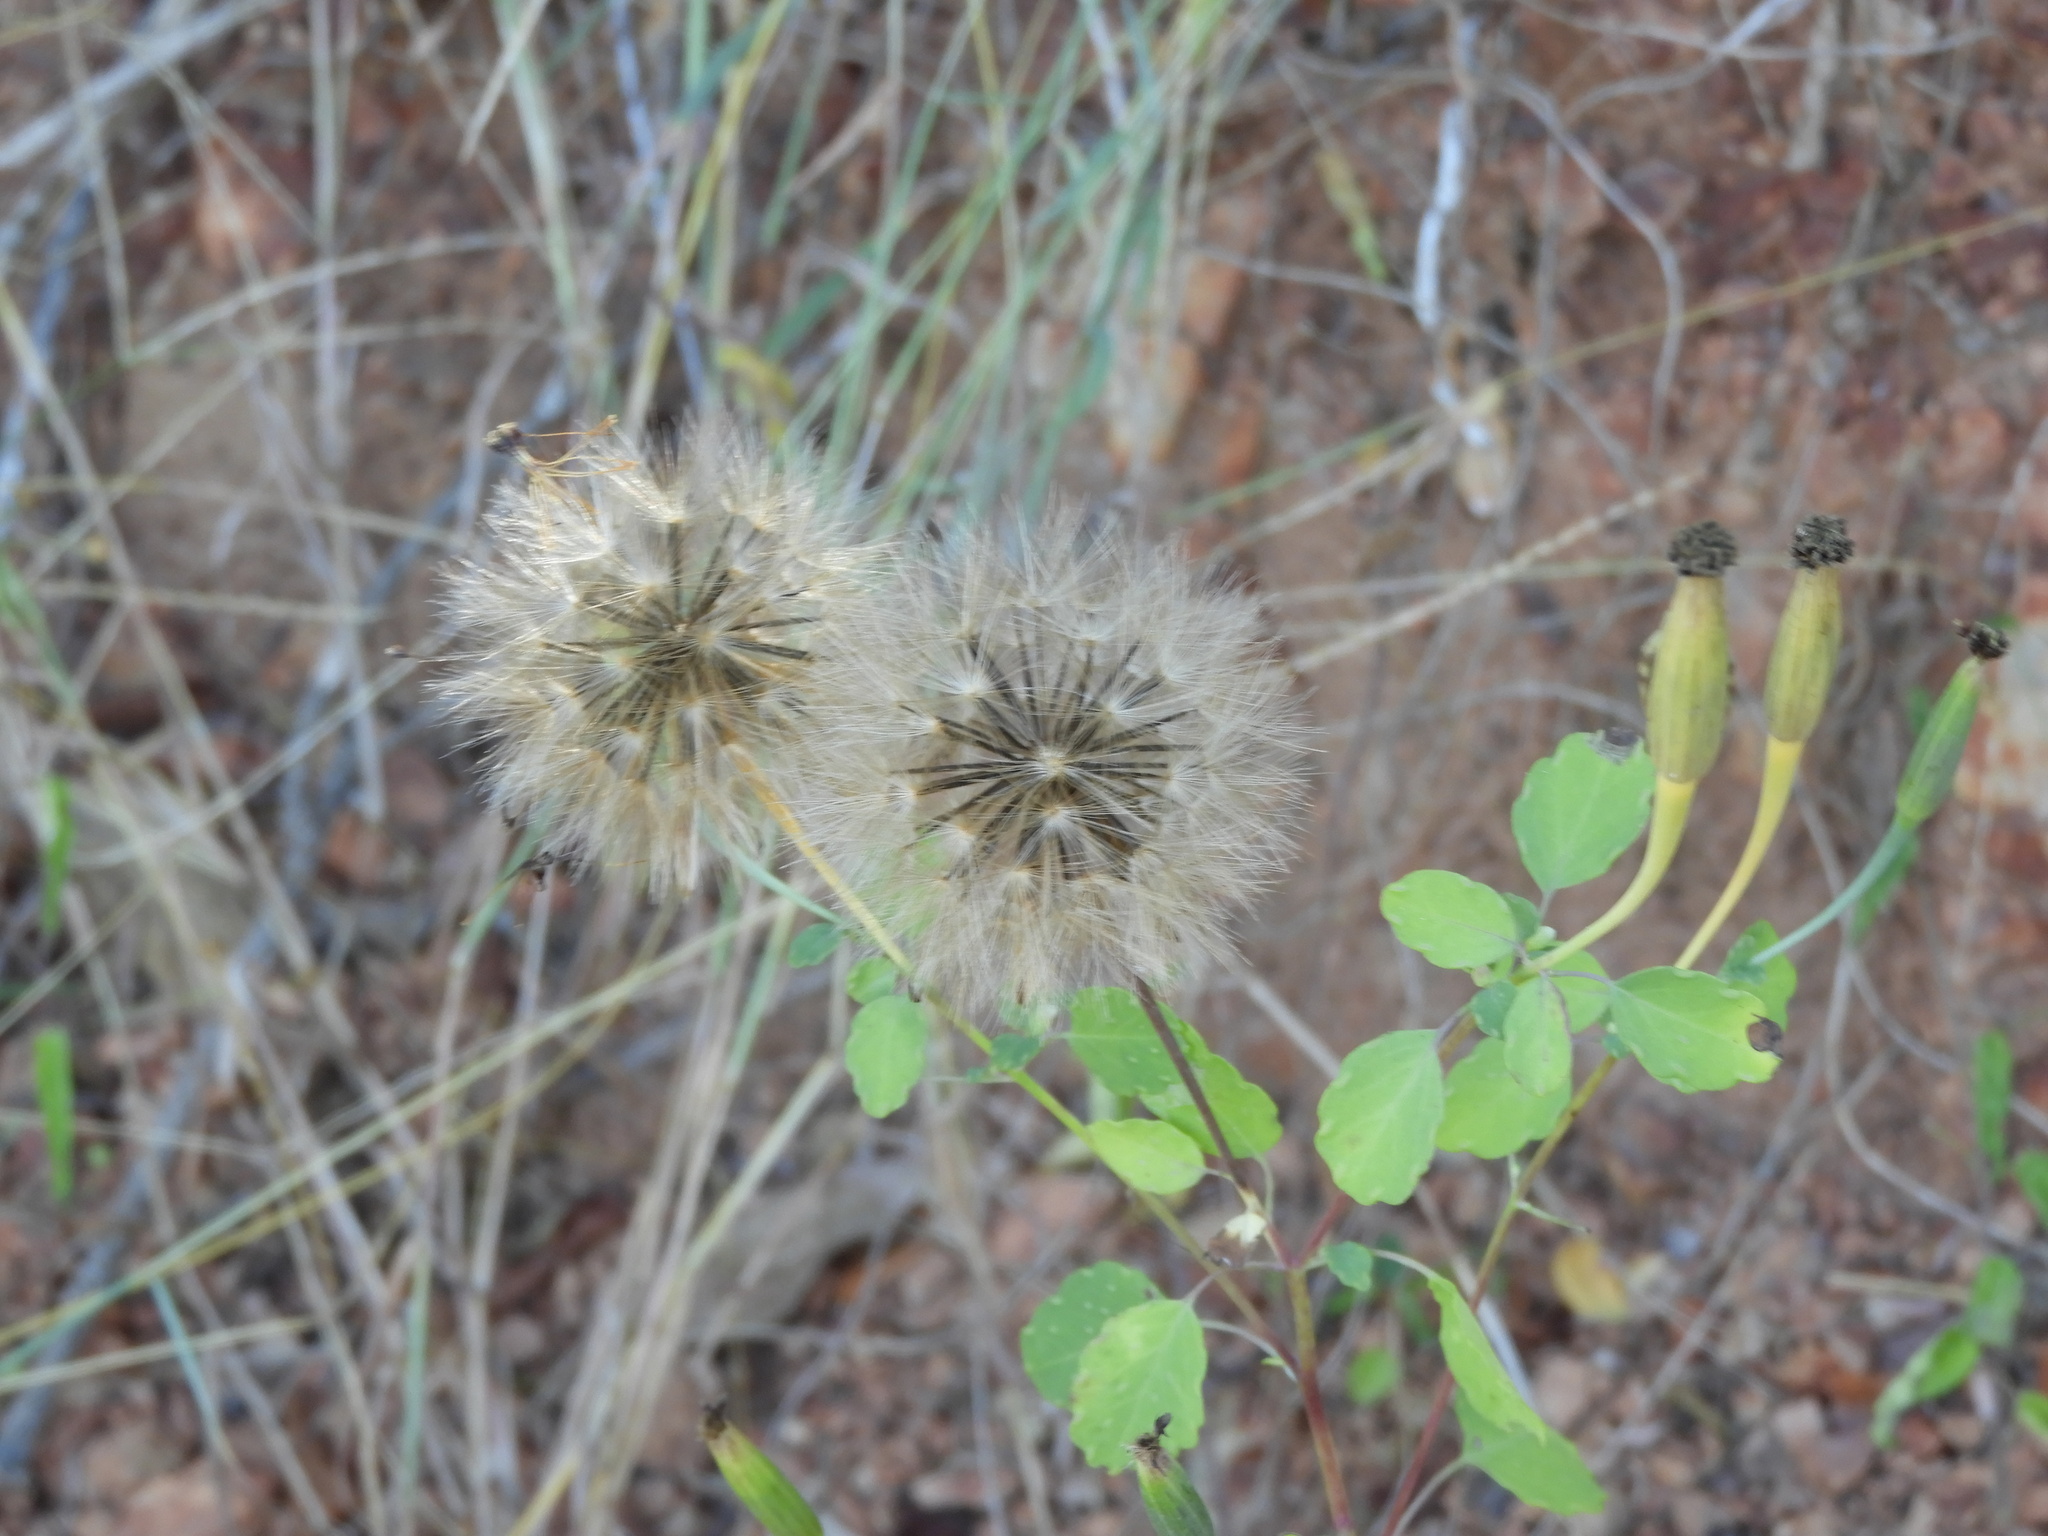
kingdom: Plantae
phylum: Tracheophyta
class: Magnoliopsida
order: Asterales
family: Asteraceae
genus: Porophyllum
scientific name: Porophyllum ruderale
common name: Yerba porosa
